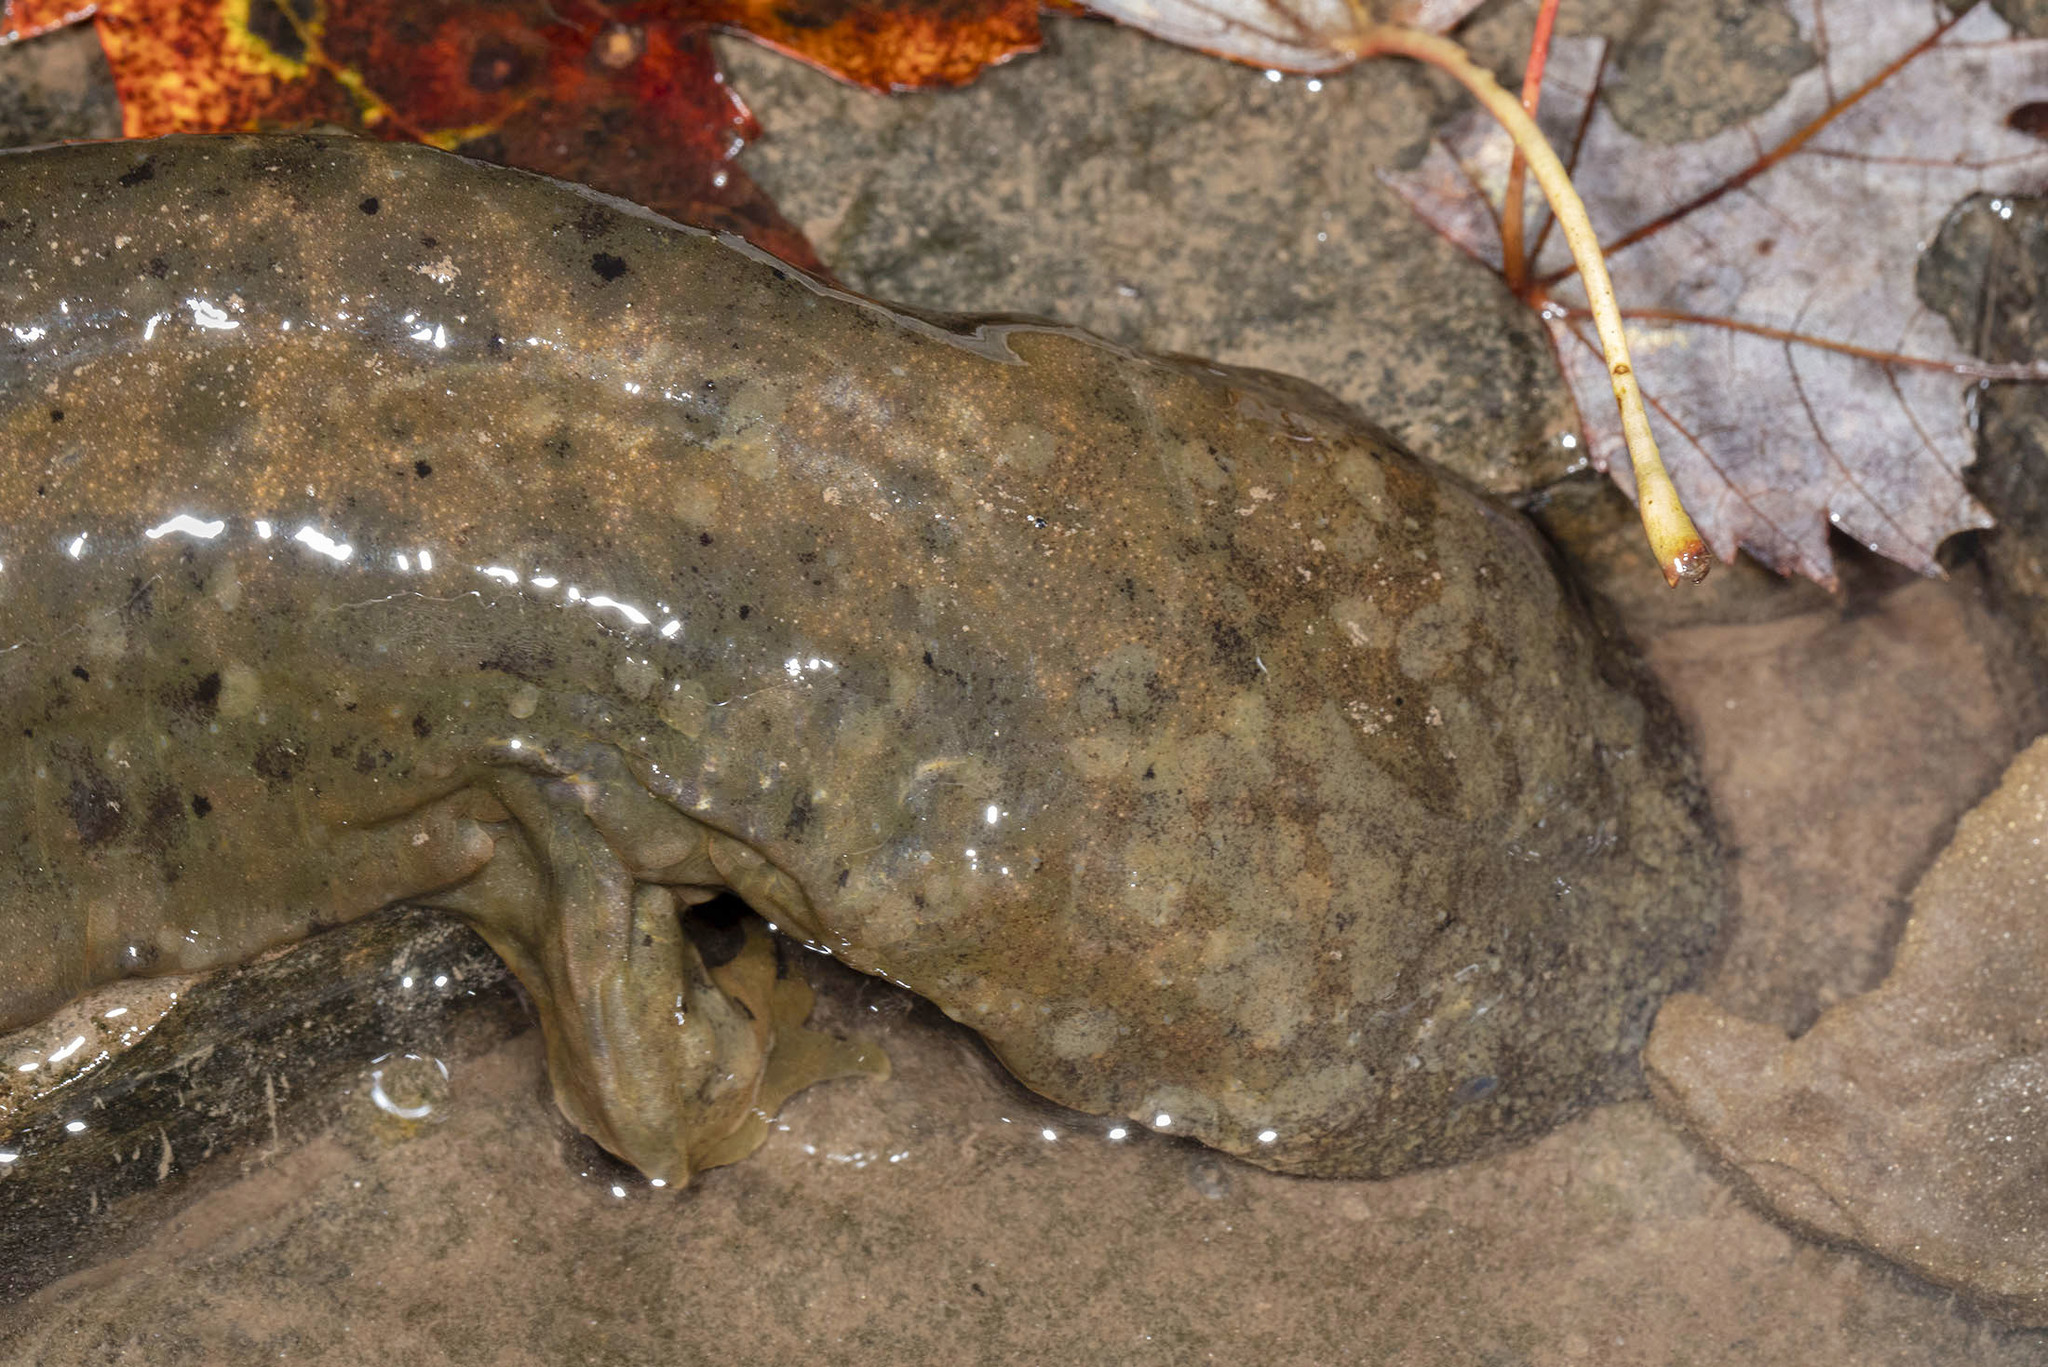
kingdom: Animalia
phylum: Chordata
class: Amphibia
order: Caudata
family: Cryptobranchidae
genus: Cryptobranchus
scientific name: Cryptobranchus alleganiensis
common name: Hellbender
